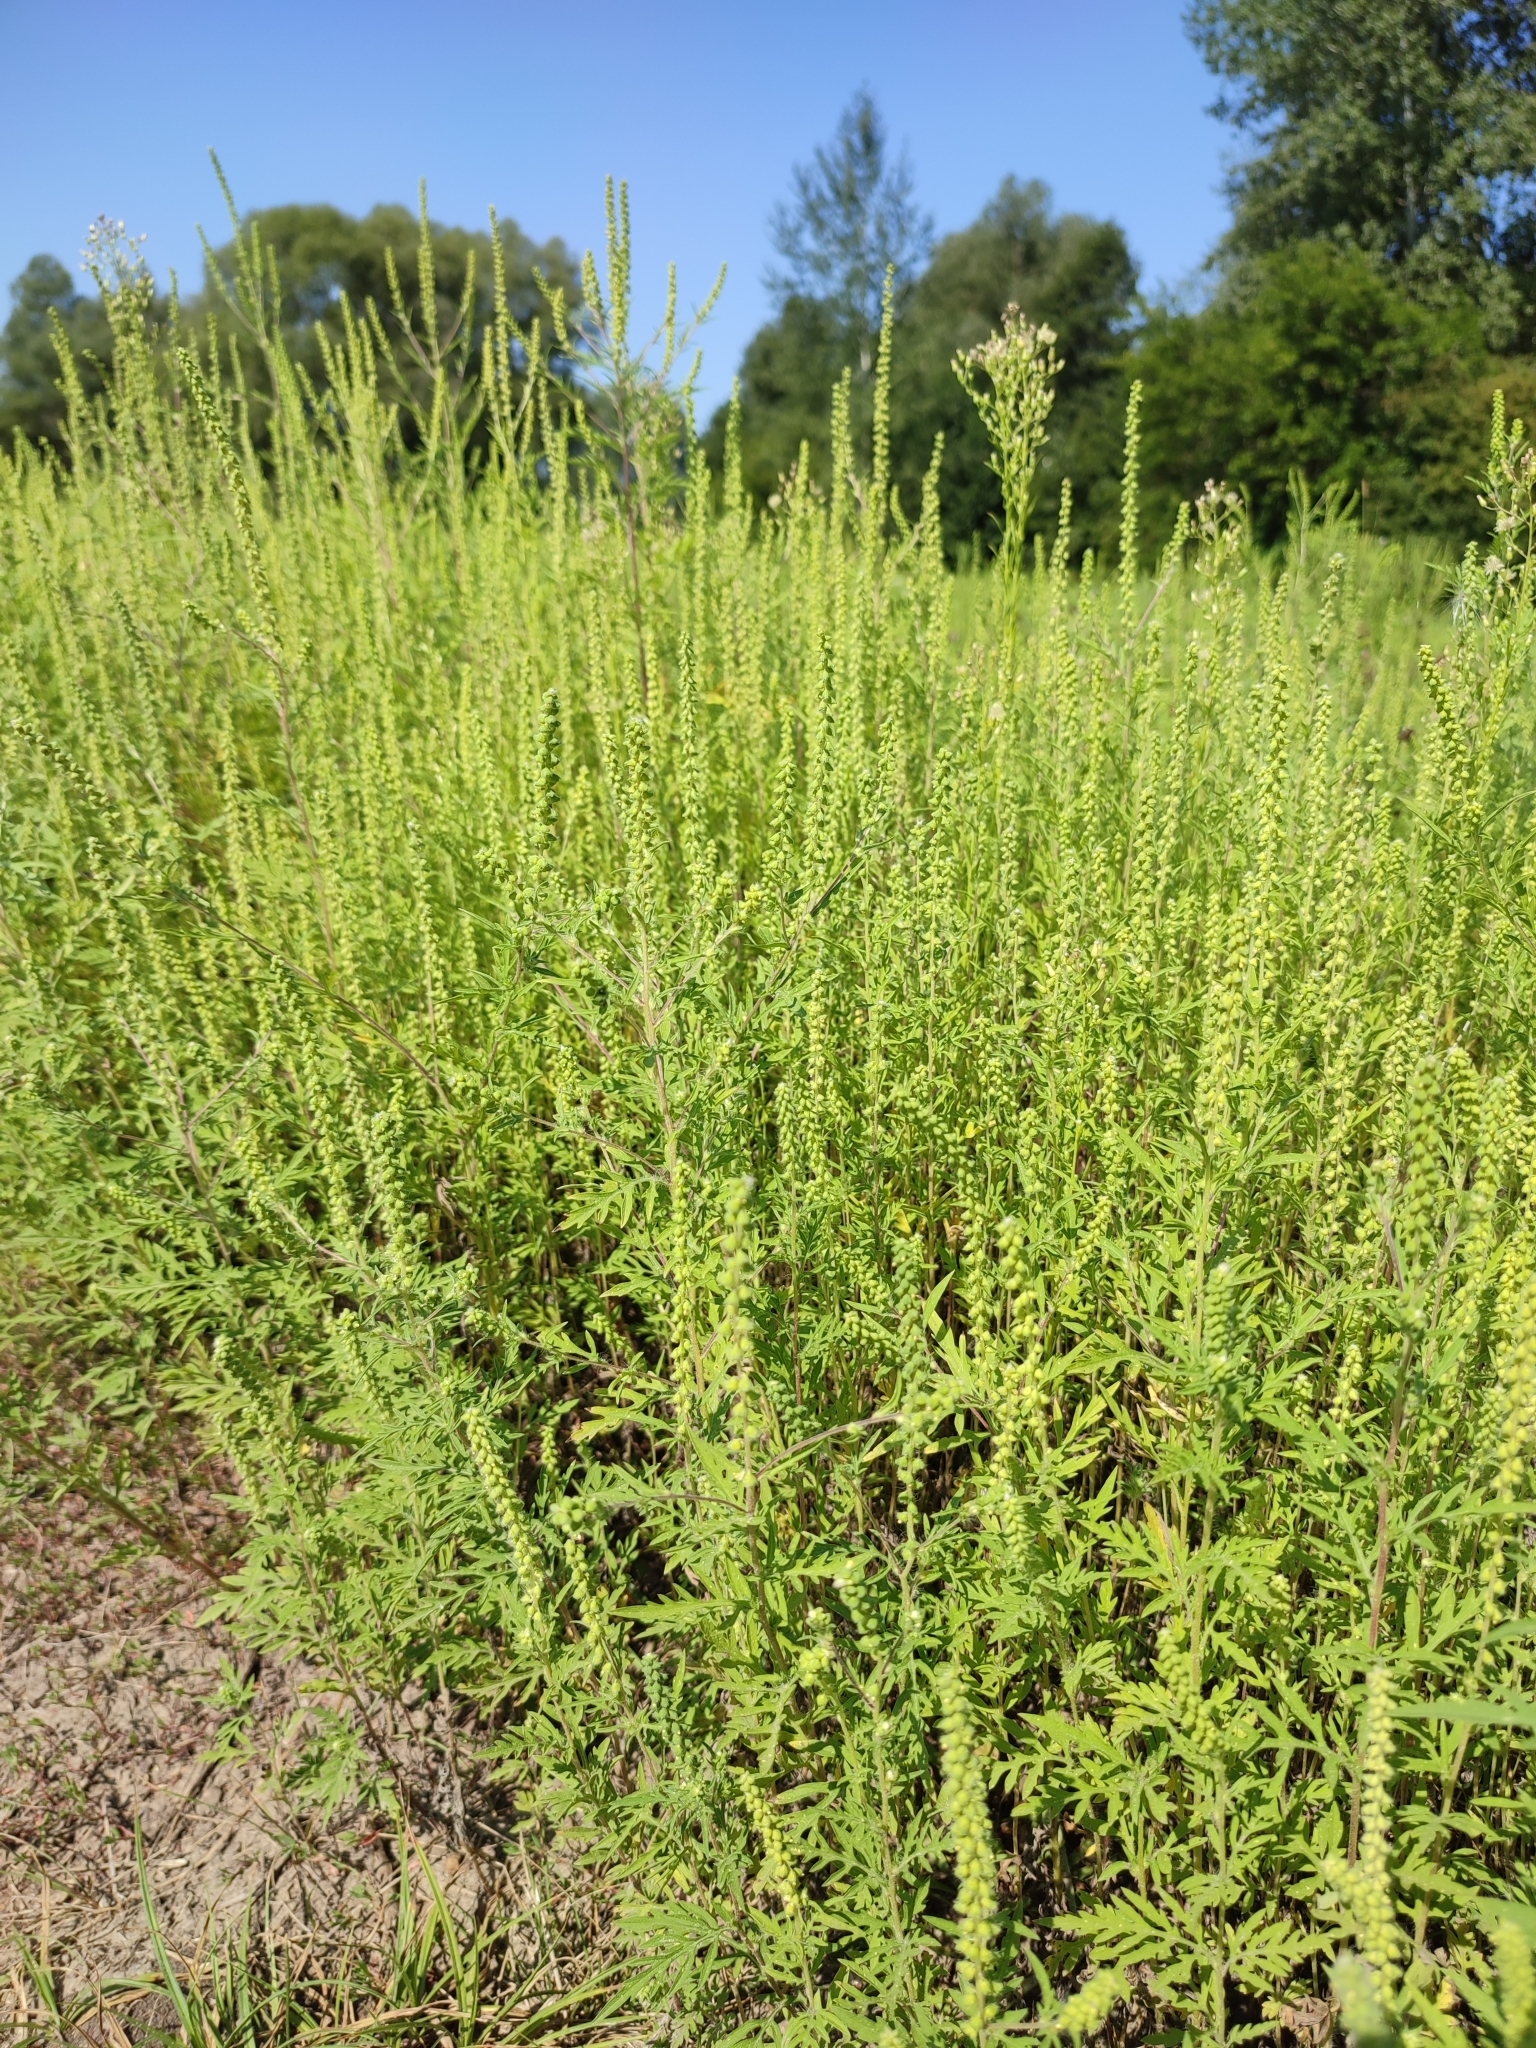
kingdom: Plantae
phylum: Tracheophyta
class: Magnoliopsida
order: Asterales
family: Asteraceae
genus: Ambrosia
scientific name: Ambrosia artemisiifolia
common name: Annual ragweed
